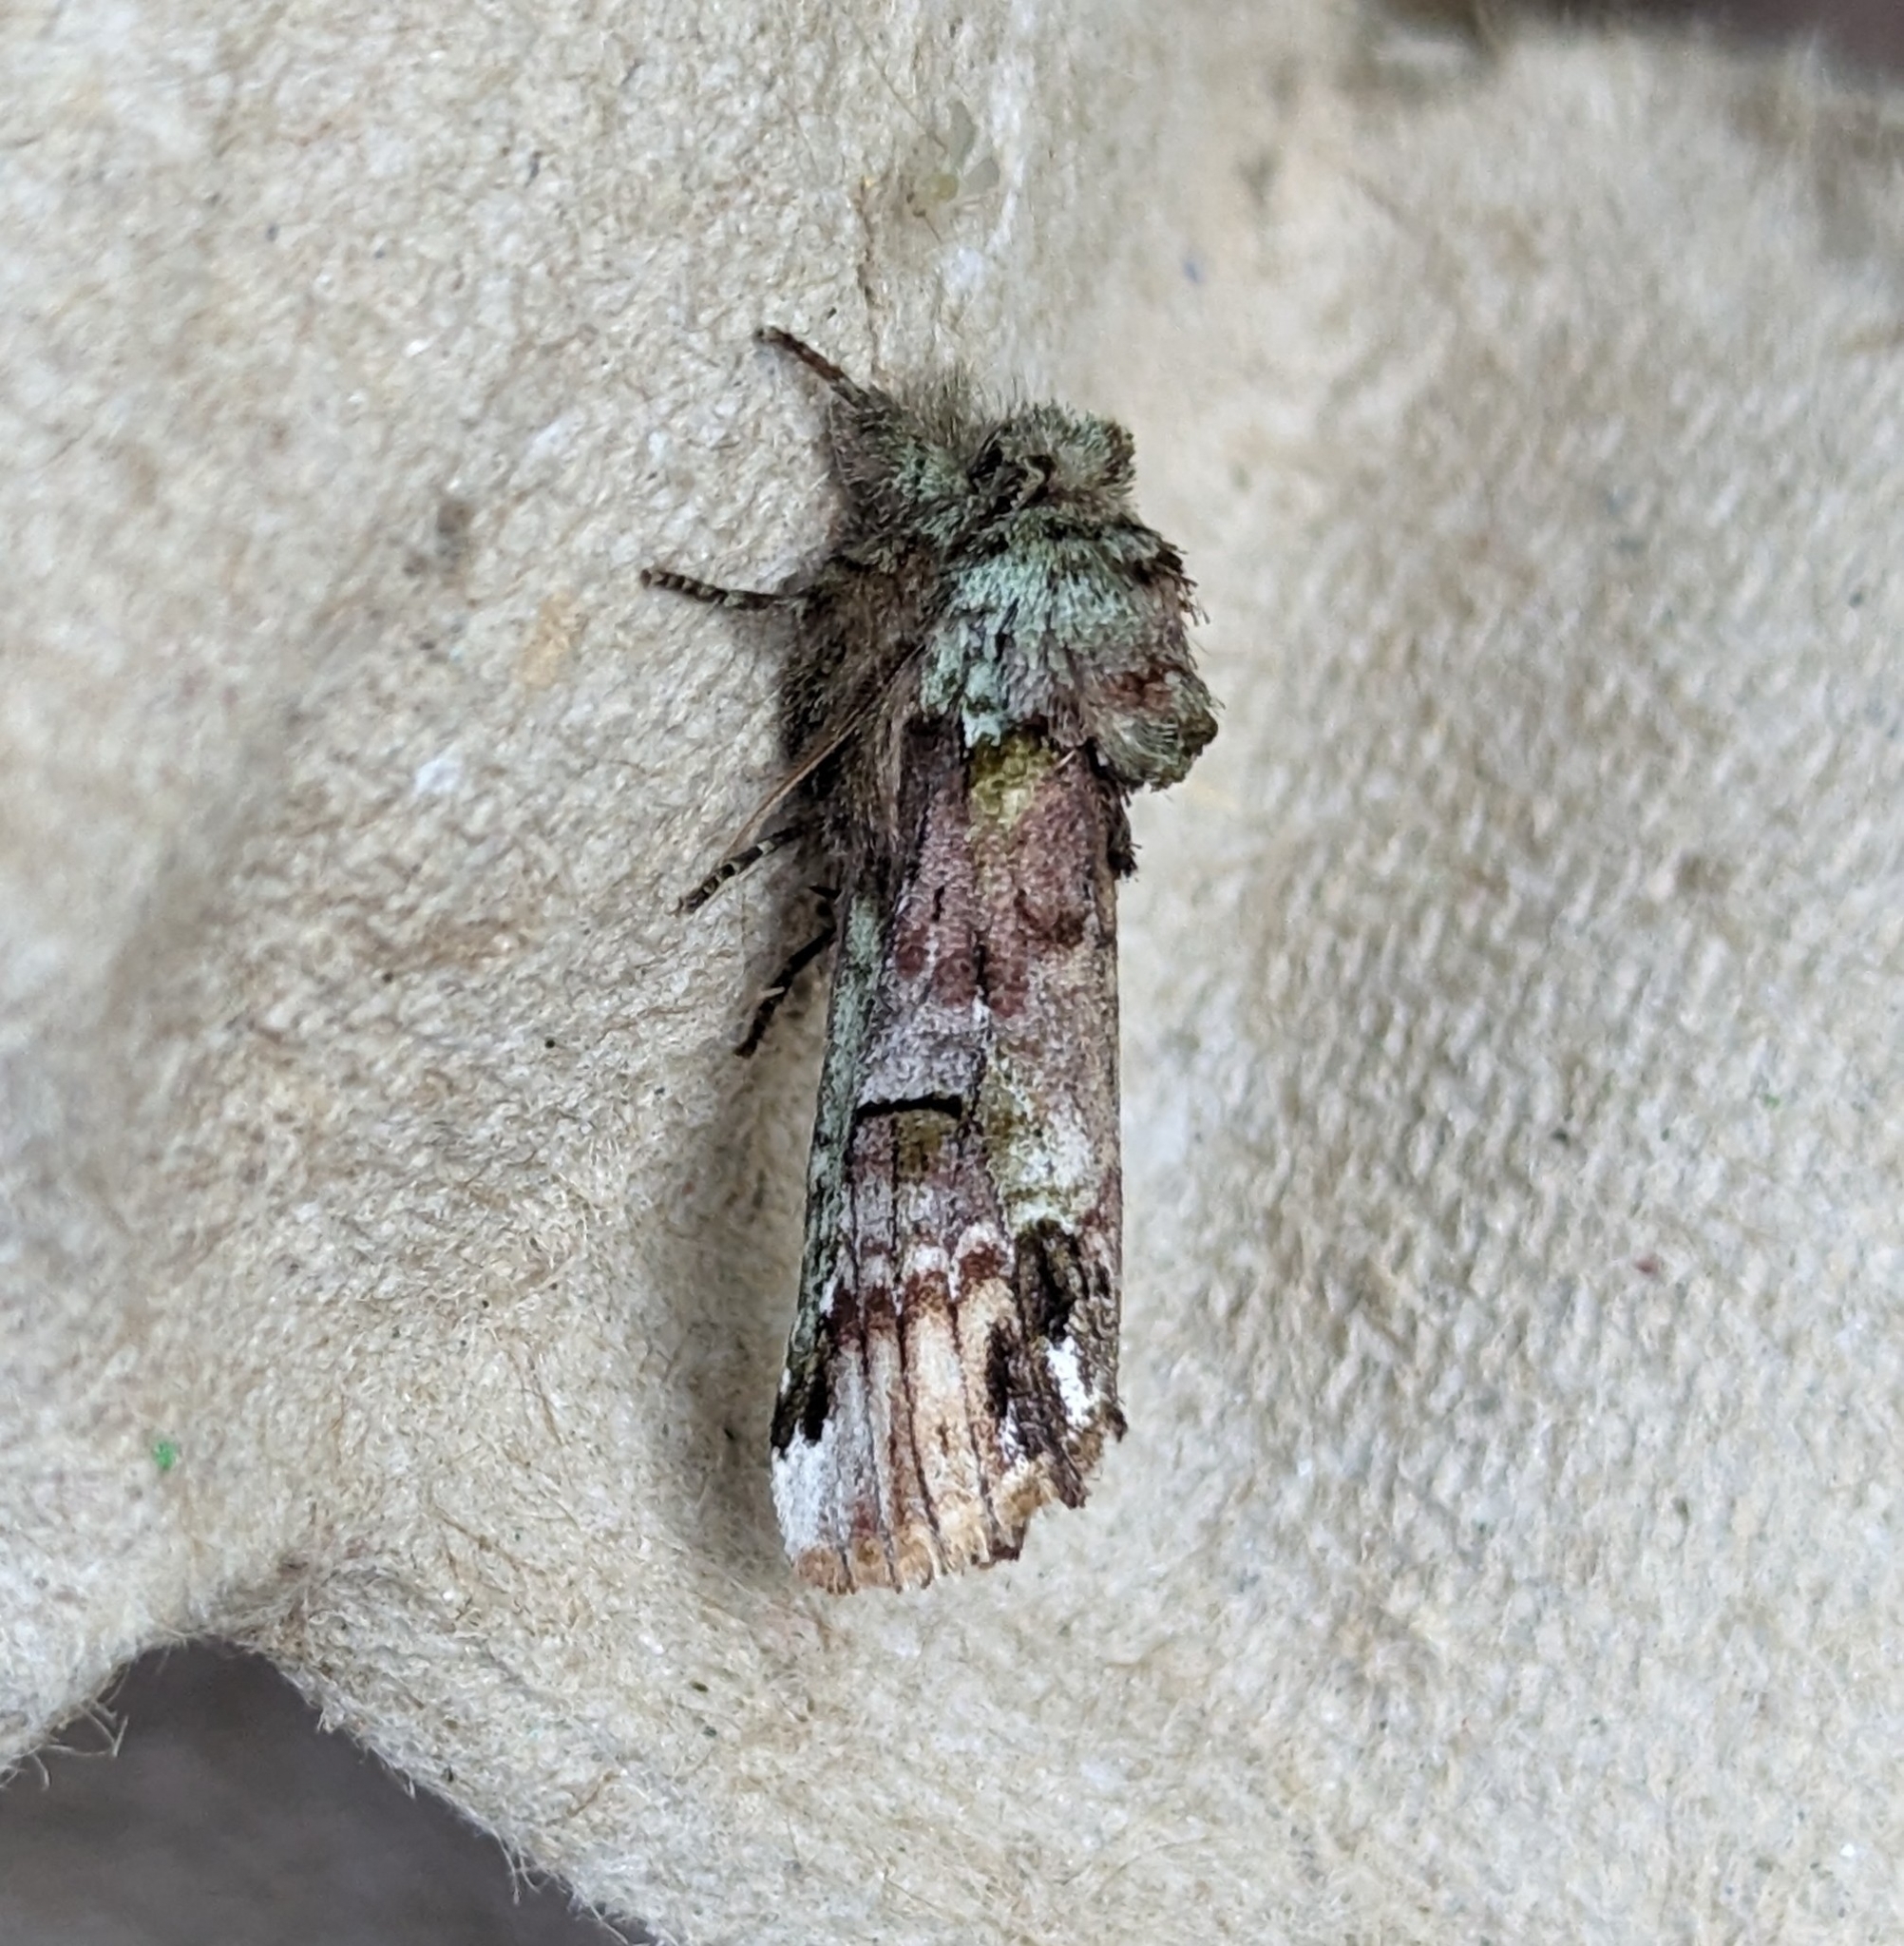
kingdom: Animalia
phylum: Arthropoda
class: Insecta
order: Lepidoptera
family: Notodontidae
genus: Schizura
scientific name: Schizura
